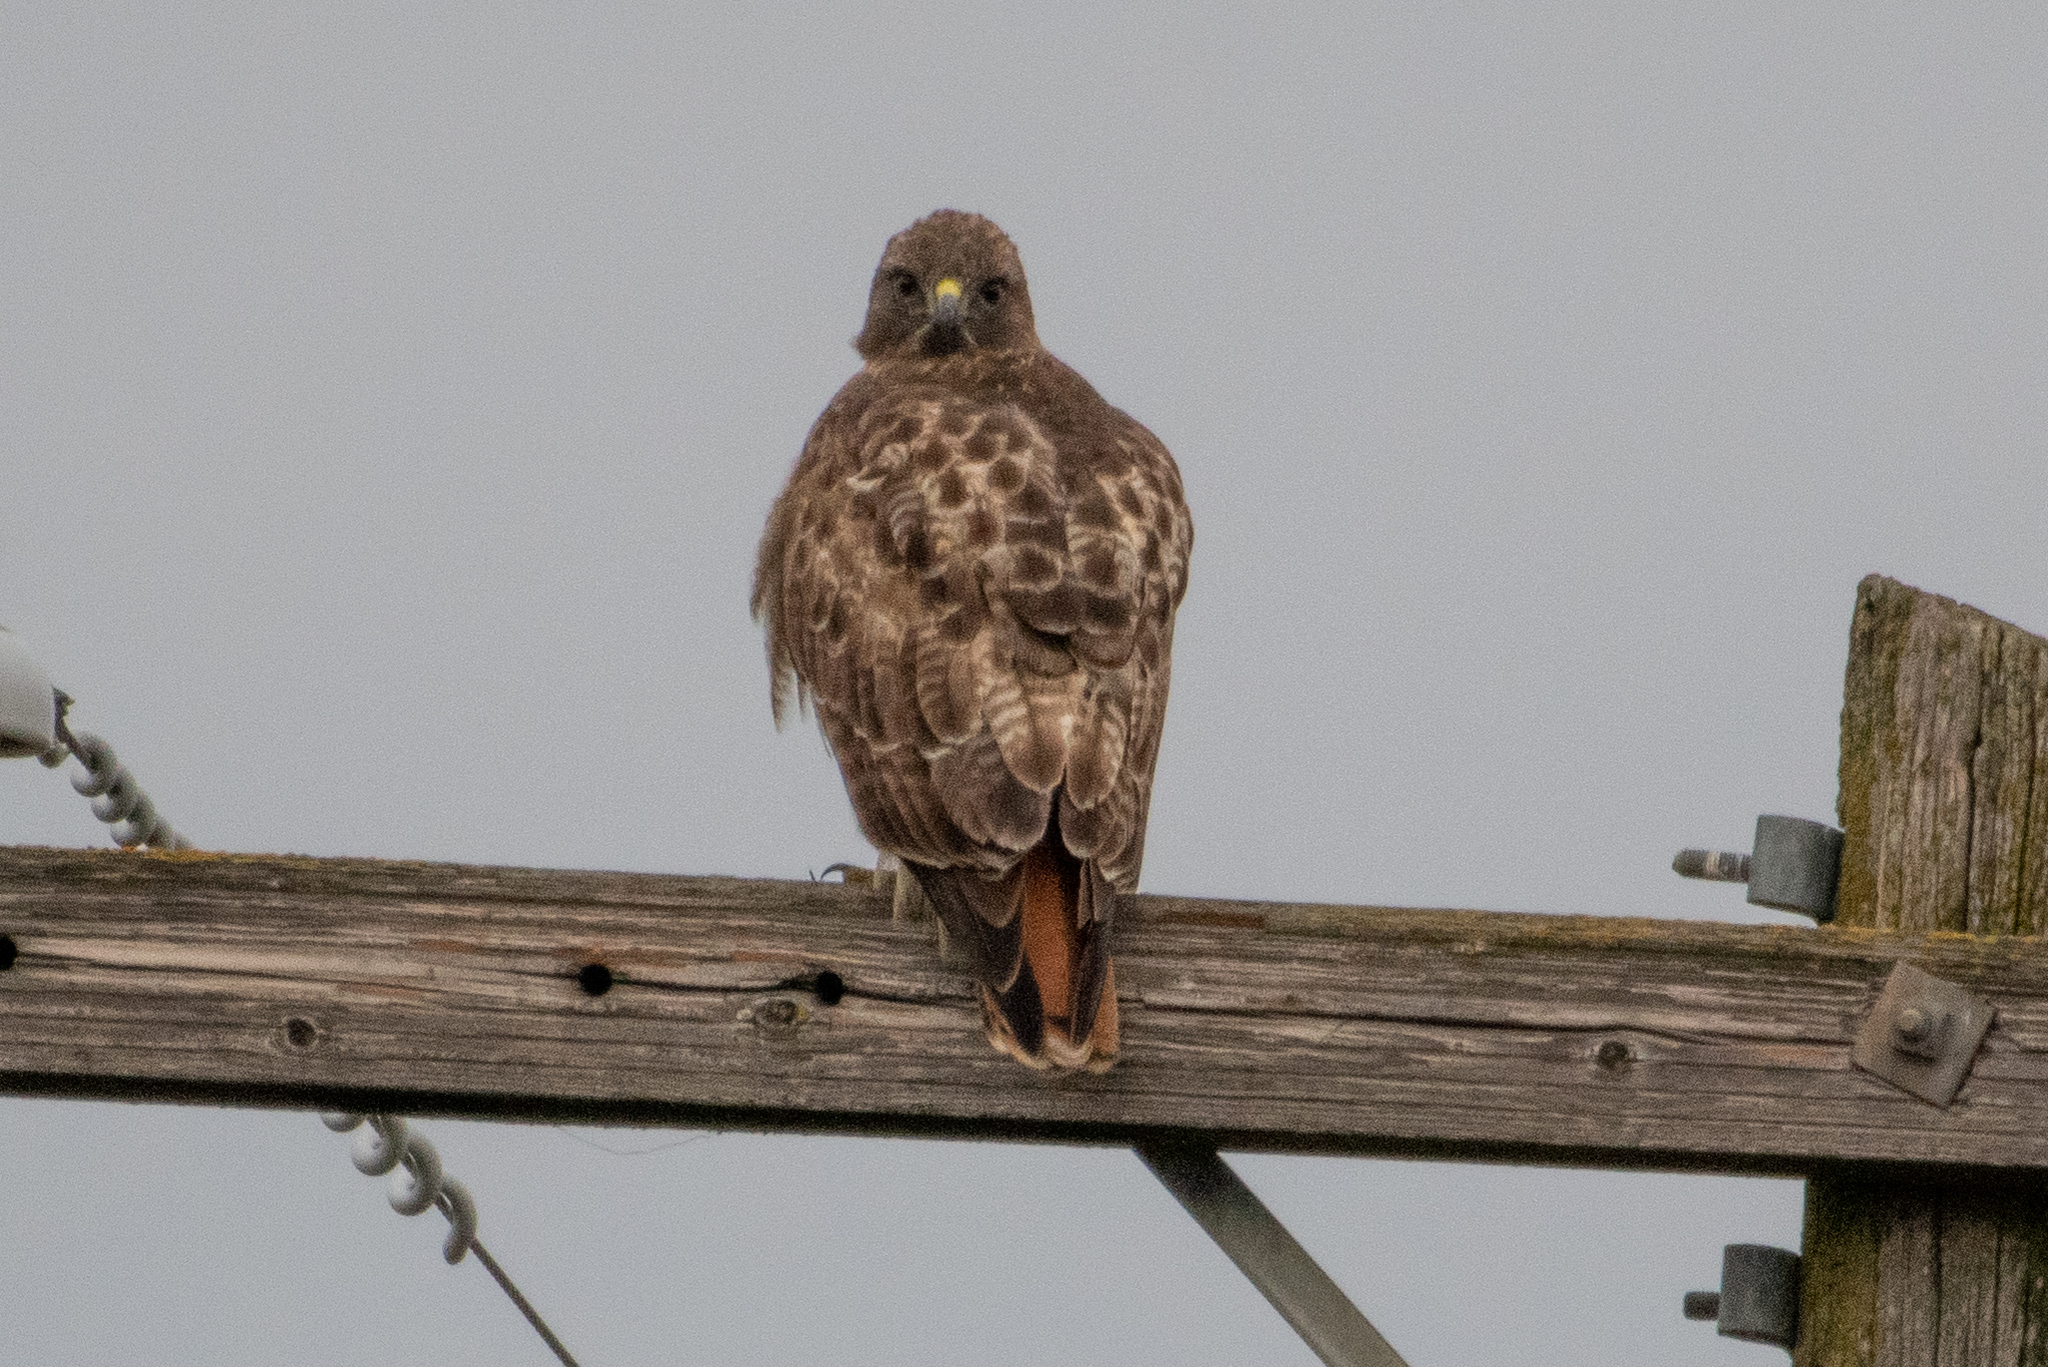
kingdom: Animalia
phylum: Chordata
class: Aves
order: Accipitriformes
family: Accipitridae
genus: Buteo
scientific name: Buteo jamaicensis
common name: Red-tailed hawk
